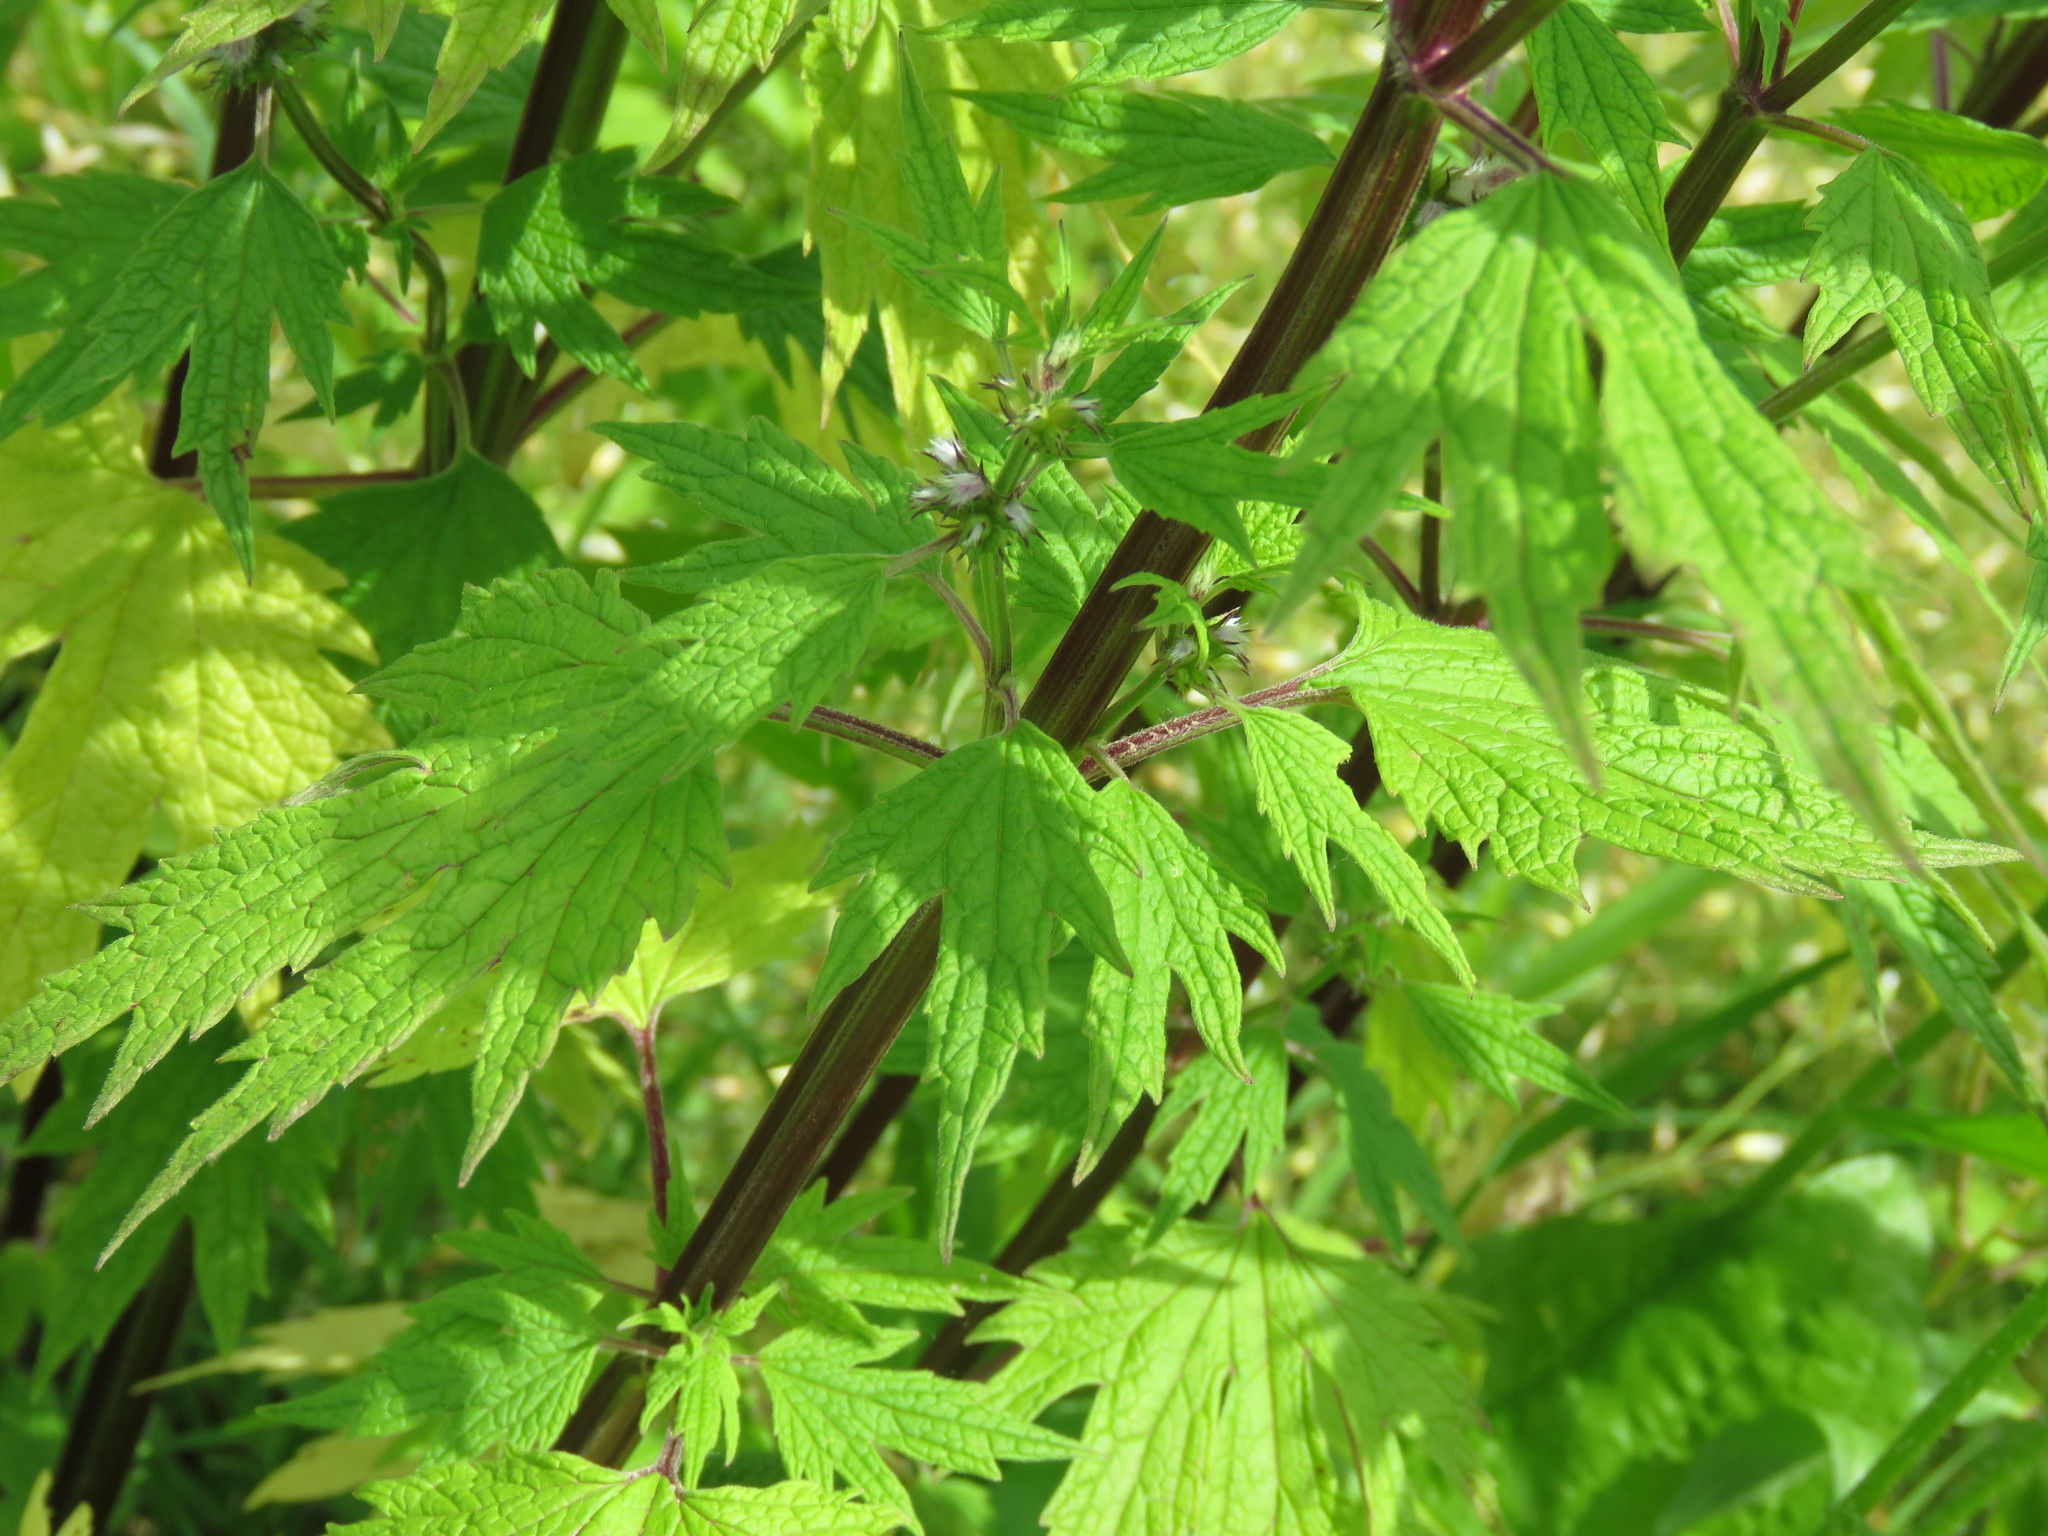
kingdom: Plantae
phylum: Tracheophyta
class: Magnoliopsida
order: Lamiales
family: Lamiaceae
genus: Leonurus
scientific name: Leonurus cardiaca
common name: Motherwort
